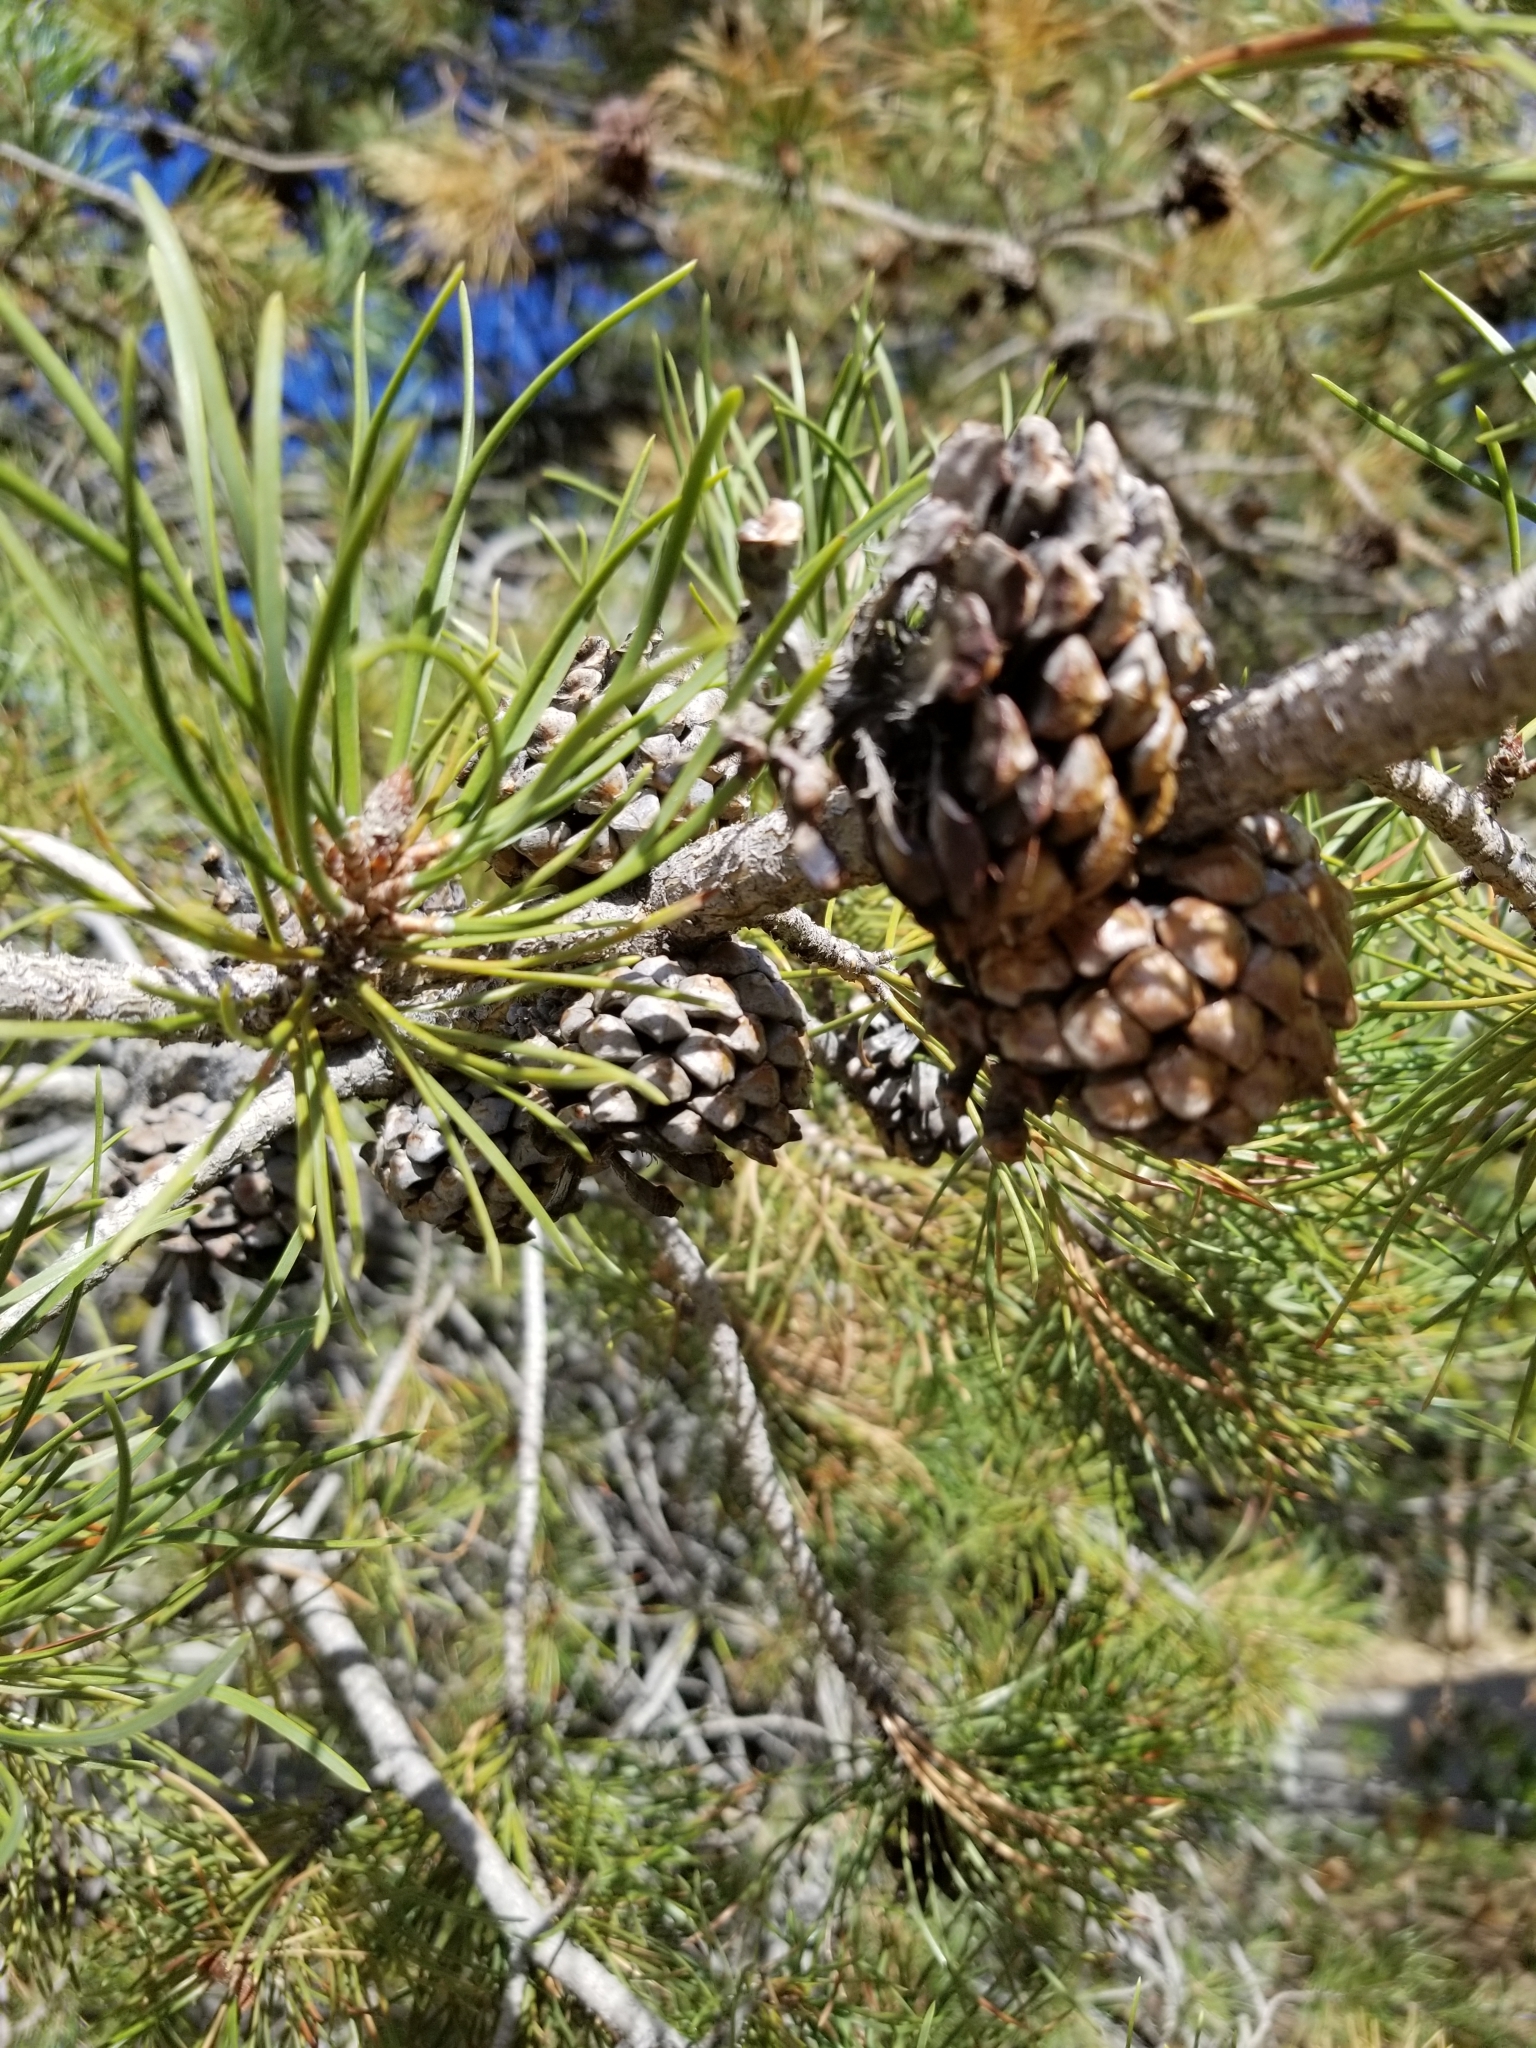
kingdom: Plantae
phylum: Tracheophyta
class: Pinopsida
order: Pinales
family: Pinaceae
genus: Pinus
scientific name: Pinus contorta
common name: Lodgepole pine
